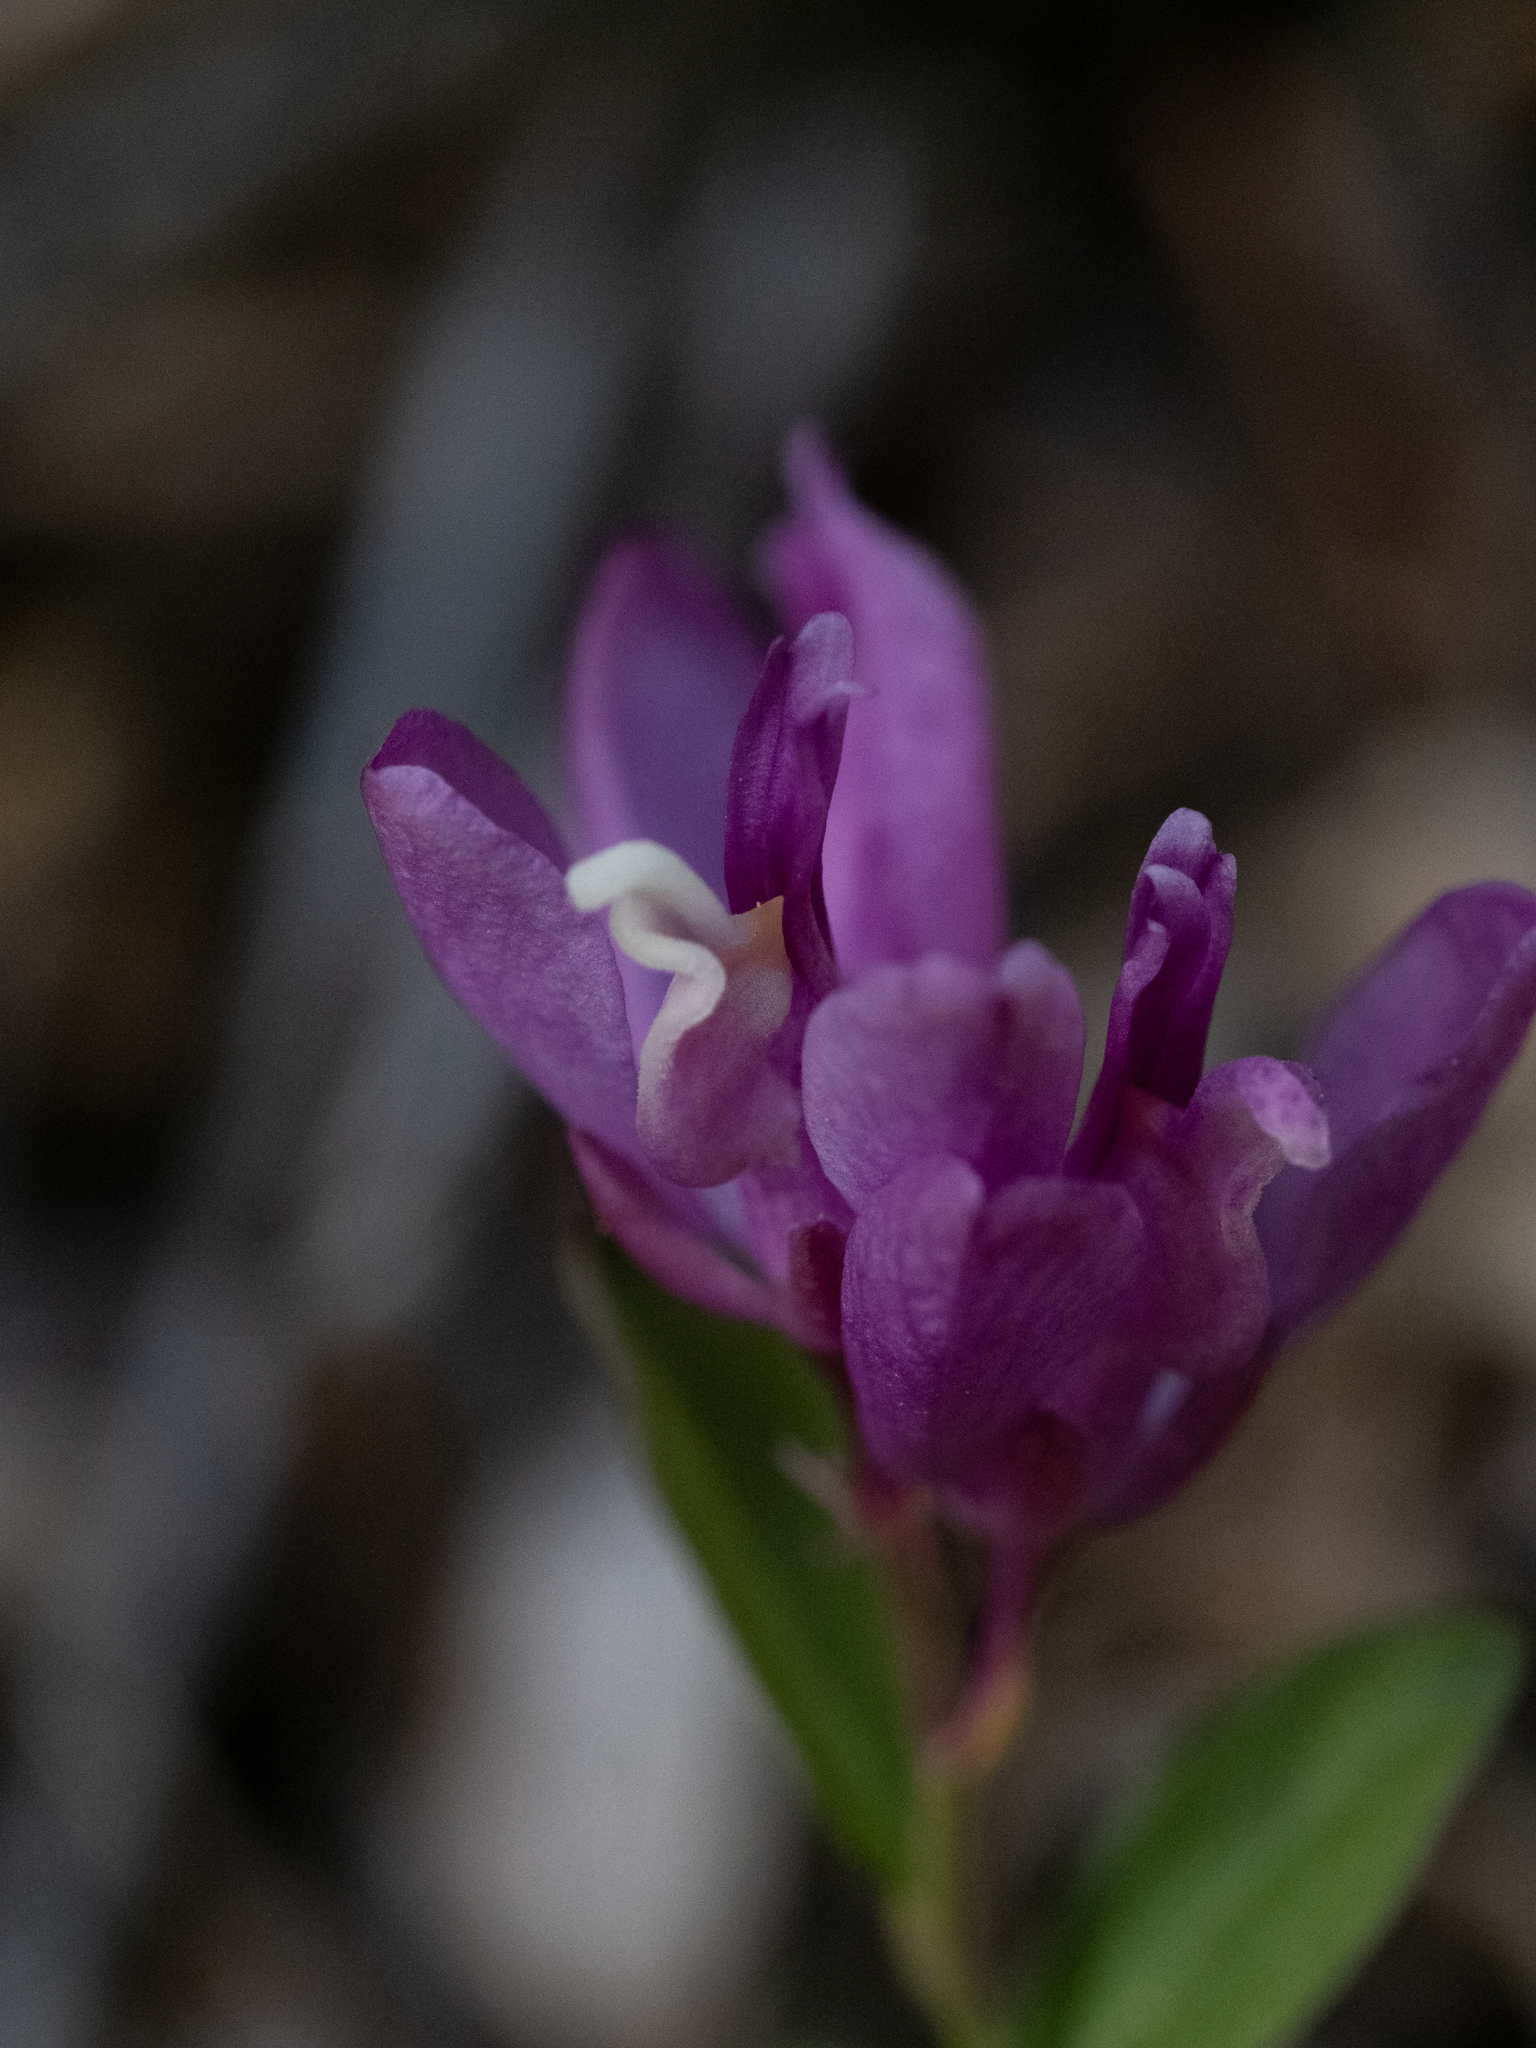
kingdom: Plantae
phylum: Tracheophyta
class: Magnoliopsida
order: Fabales
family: Polygalaceae
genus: Rhinotropis
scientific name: Rhinotropis californica
